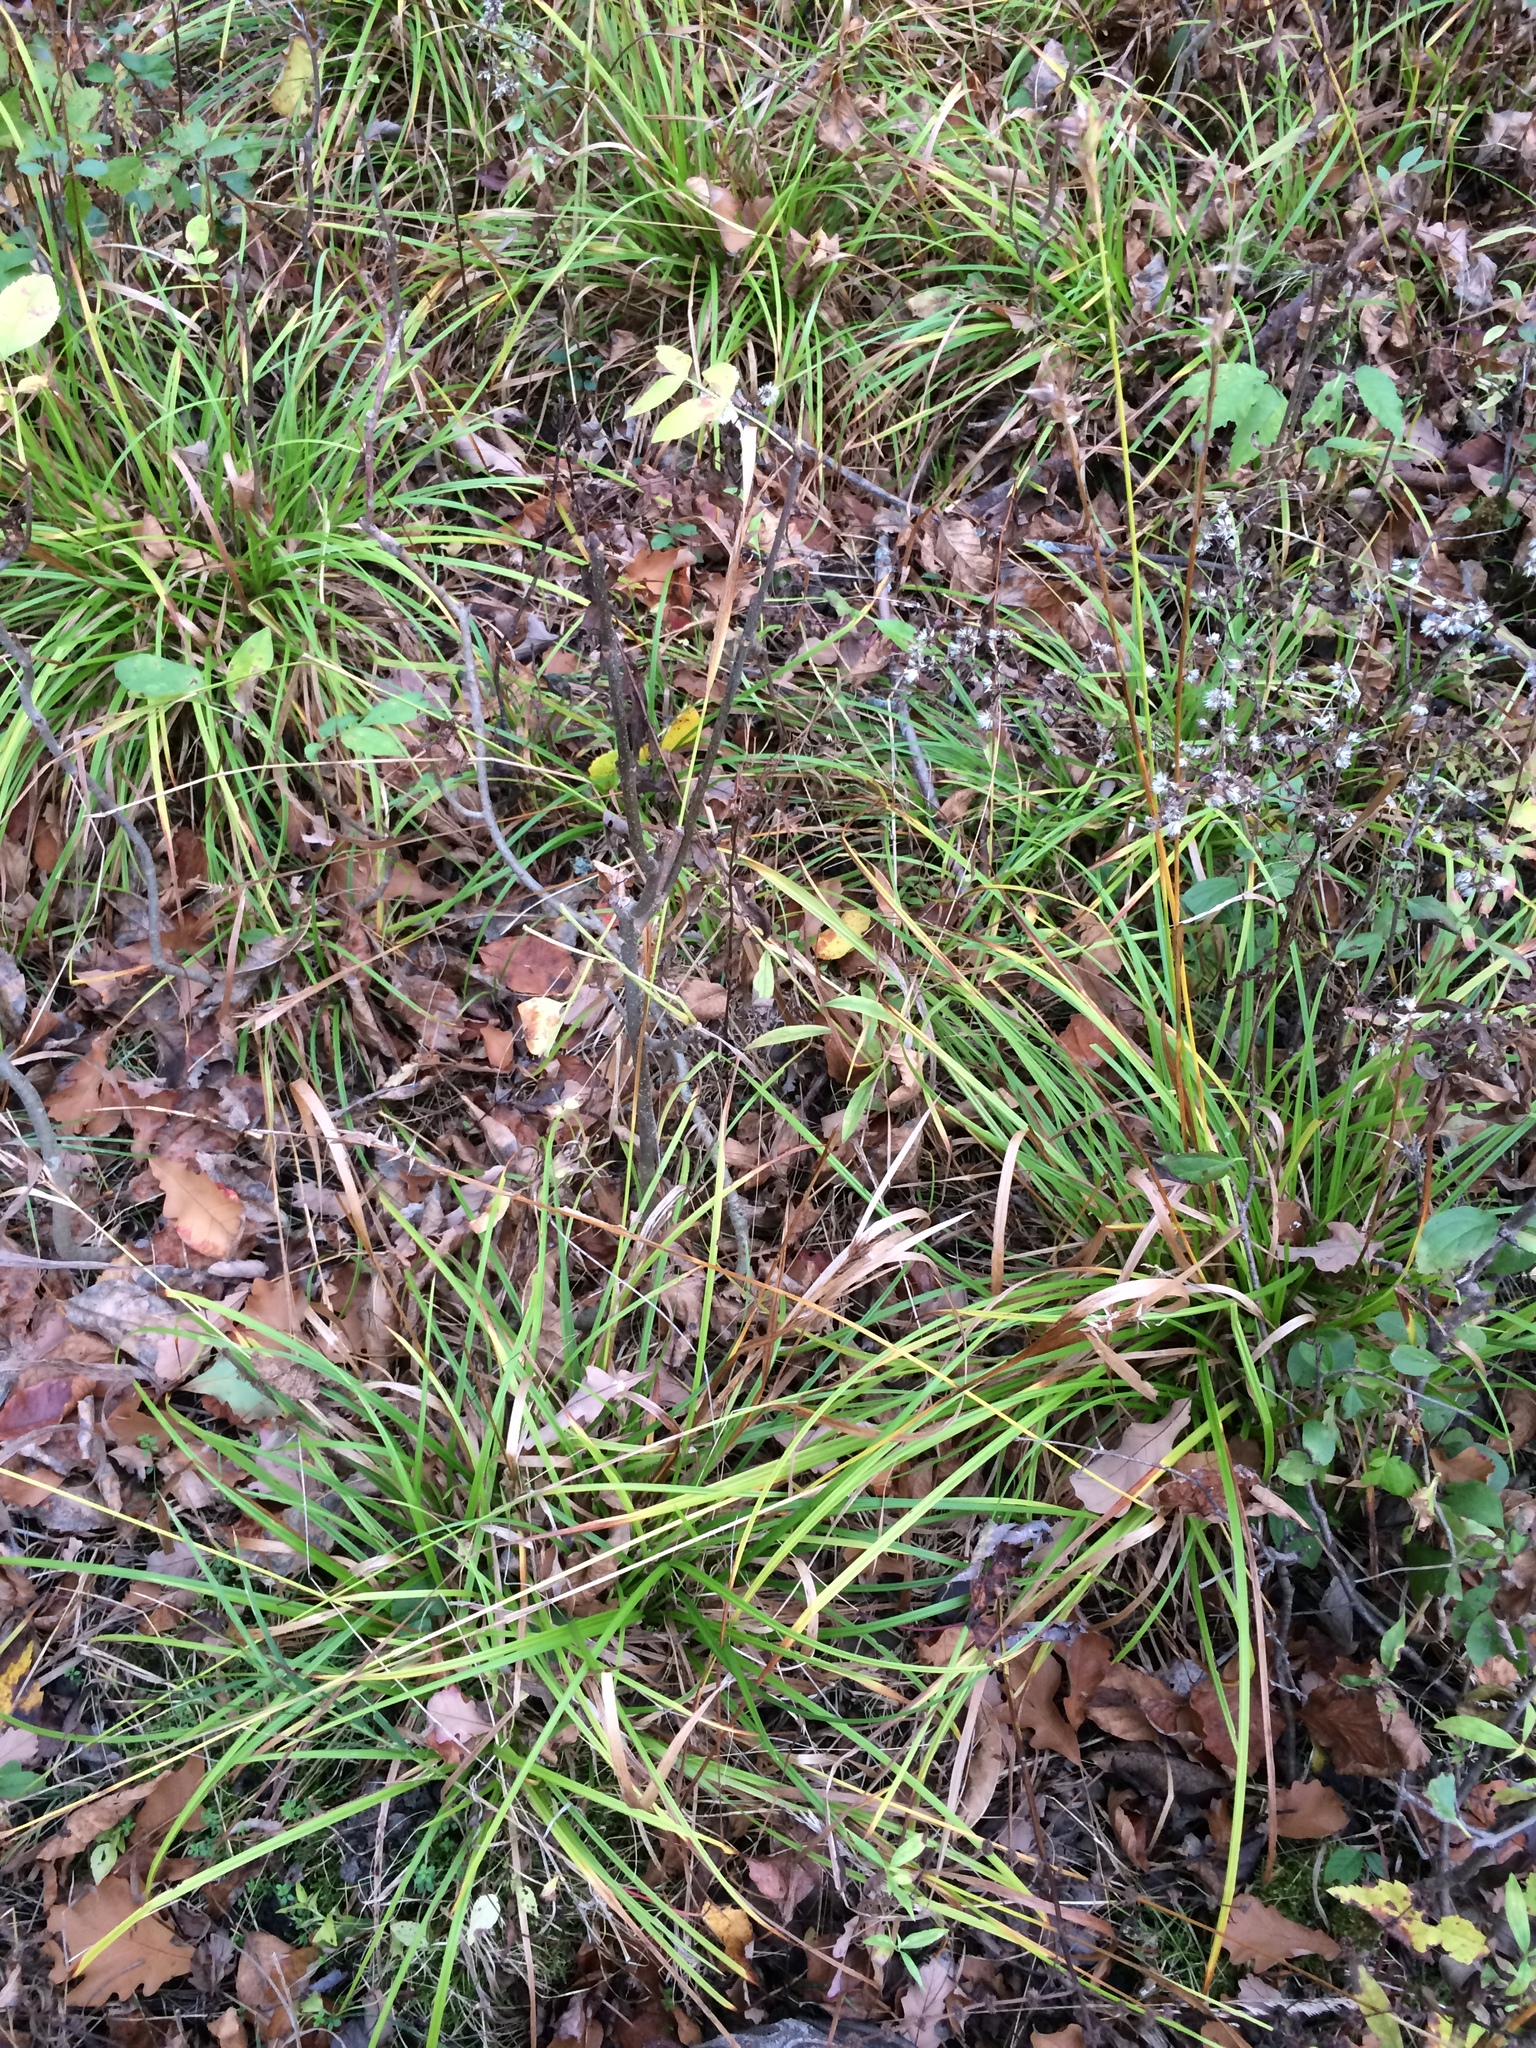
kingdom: Plantae
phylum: Tracheophyta
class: Liliopsida
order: Poales
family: Cyperaceae
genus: Carex
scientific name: Carex intumescens
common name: Greater bladder sedge
